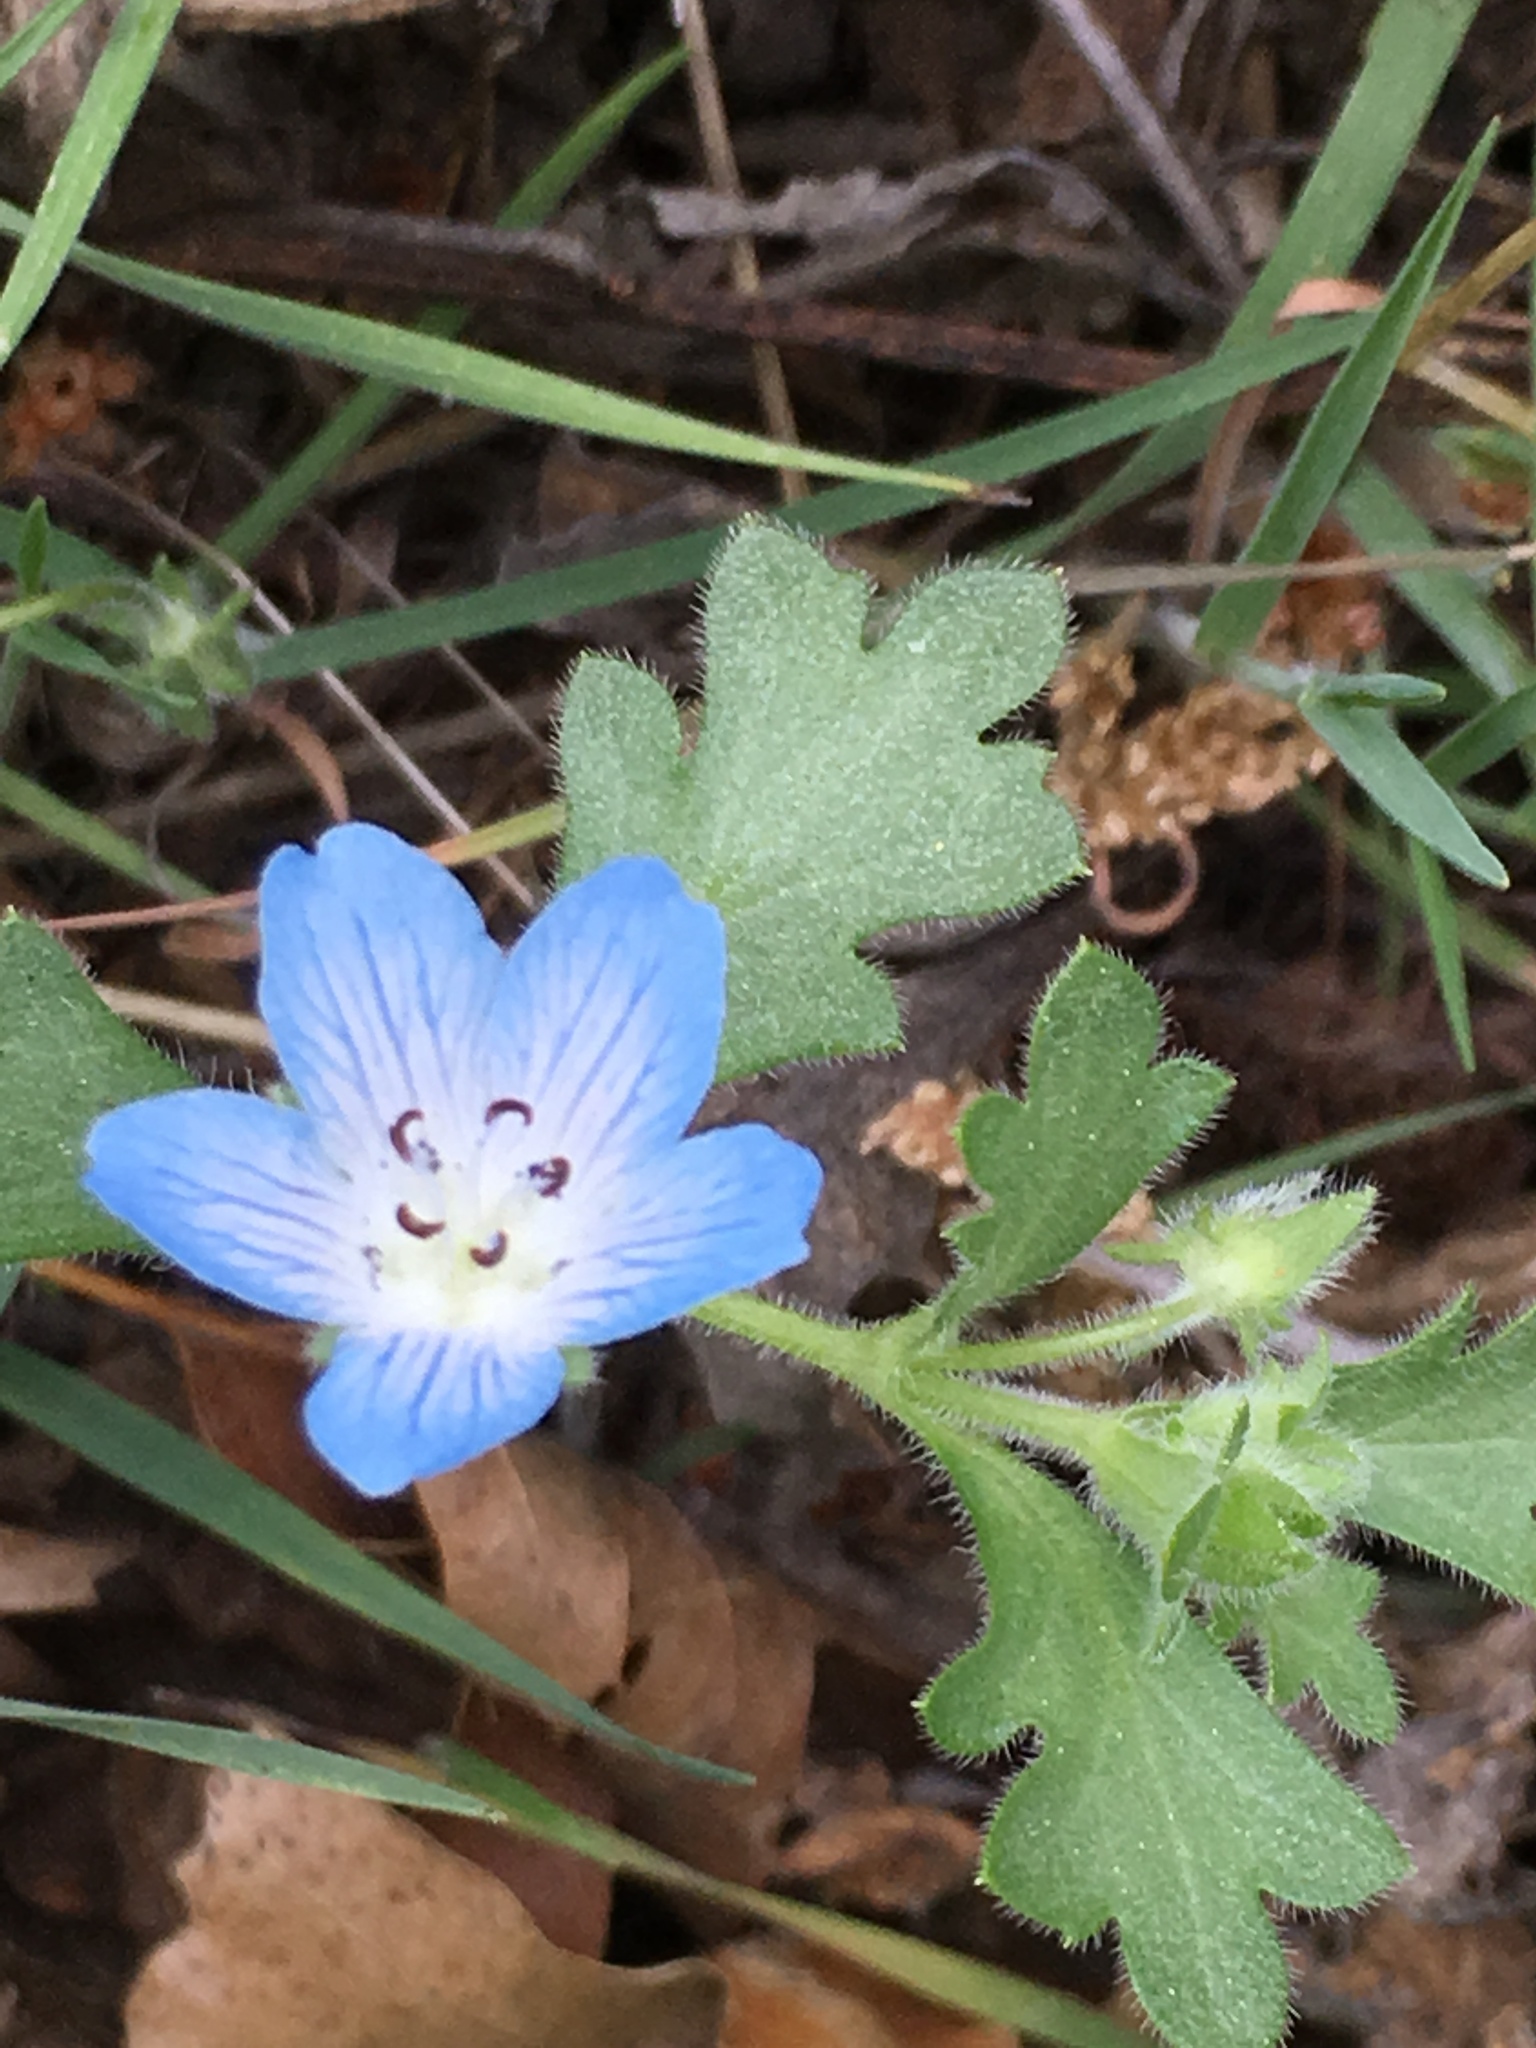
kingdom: Plantae
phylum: Tracheophyta
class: Magnoliopsida
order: Boraginales
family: Hydrophyllaceae
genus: Nemophila
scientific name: Nemophila menziesii
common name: Baby's-blue-eyes
